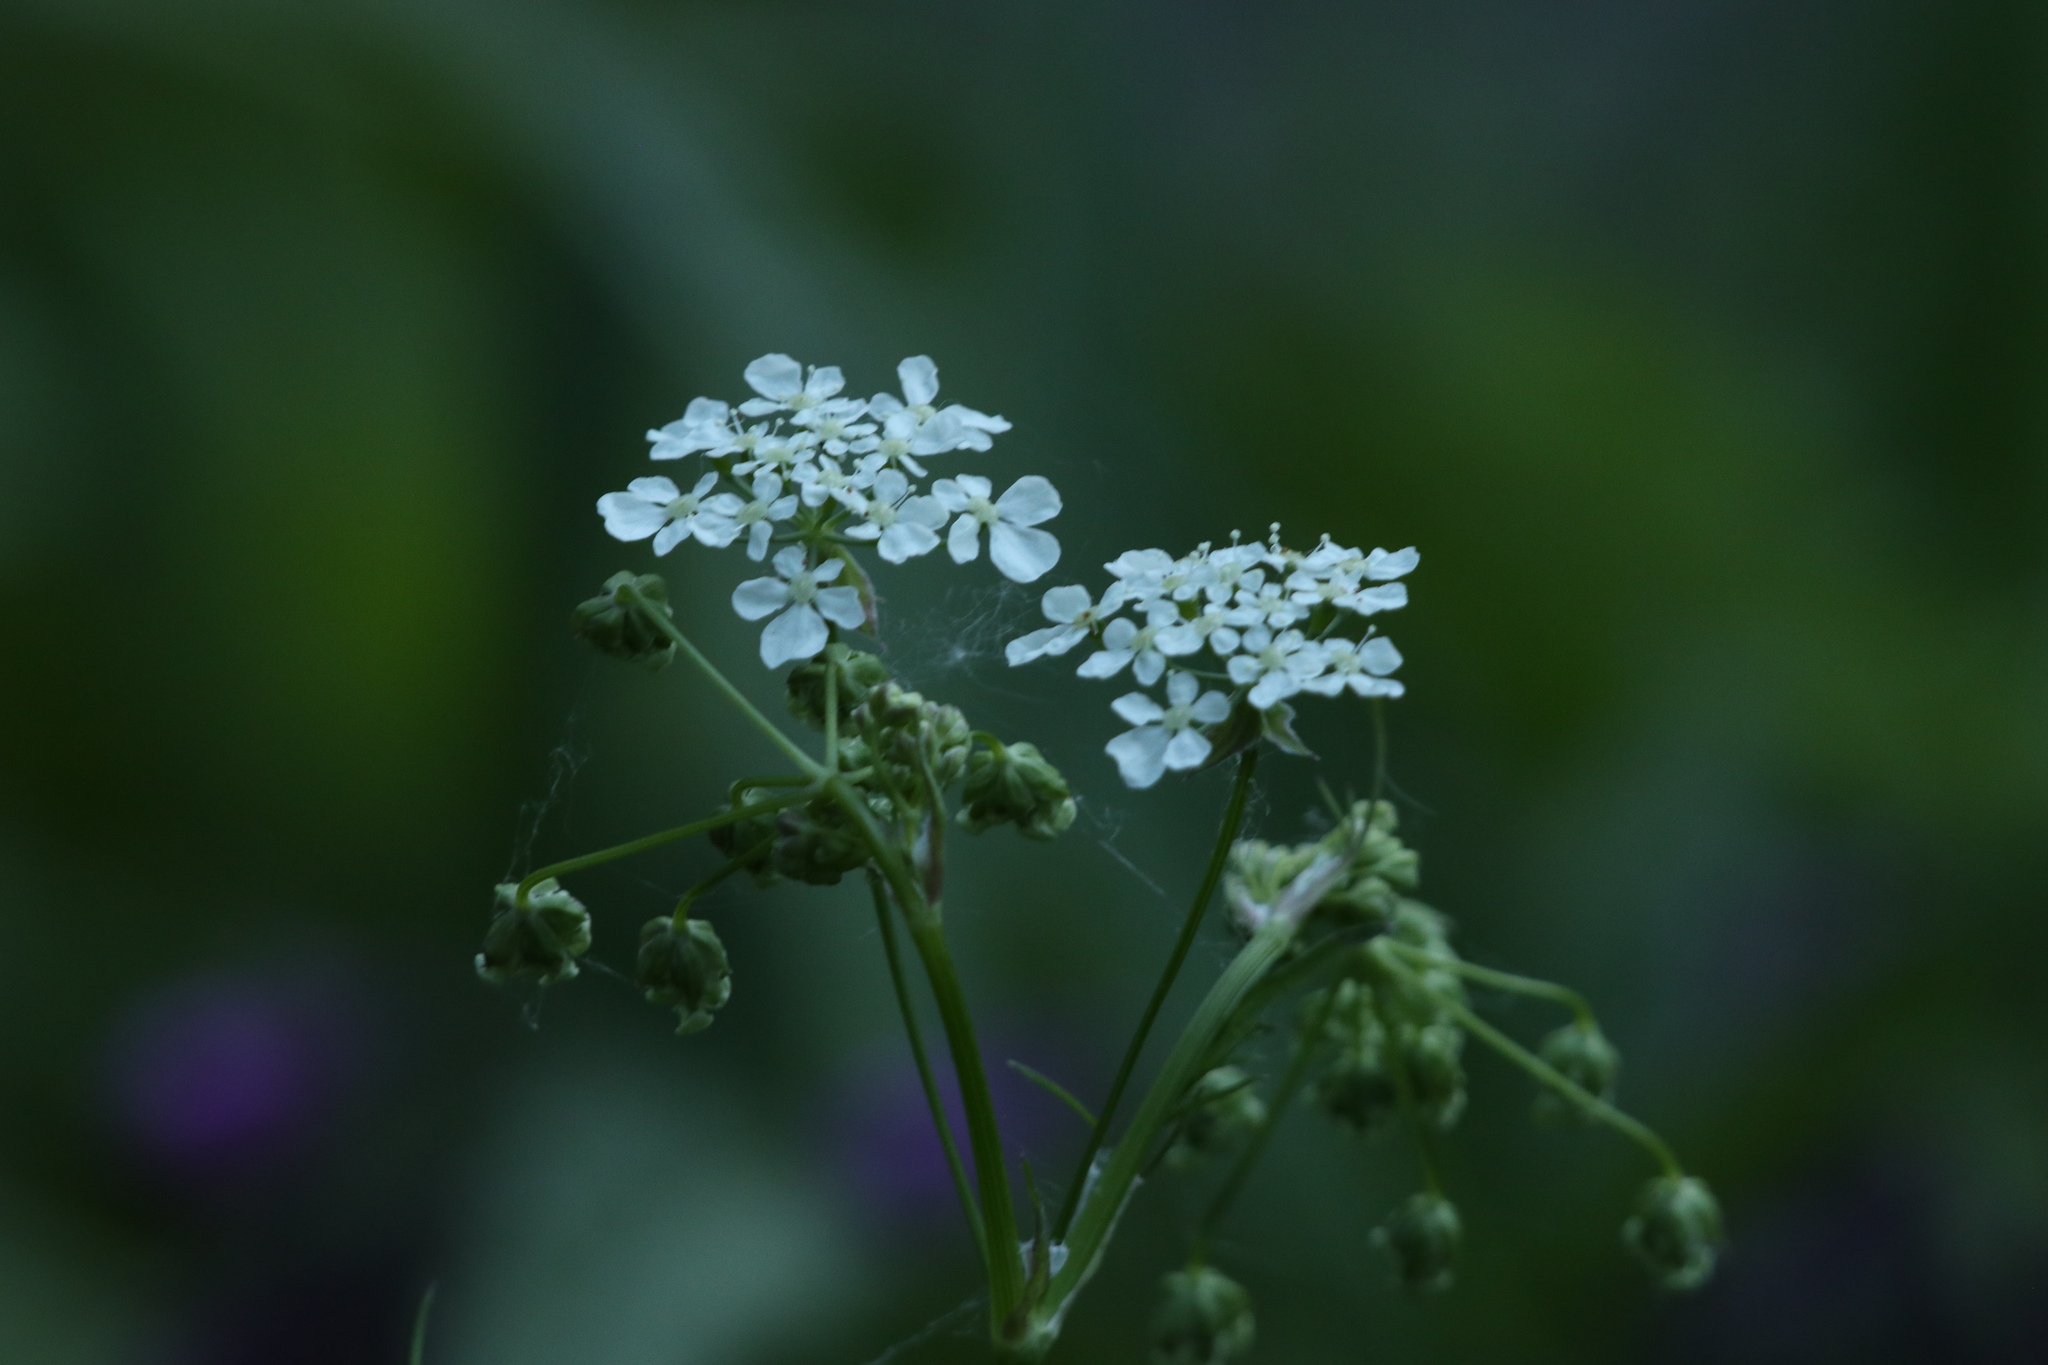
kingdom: Plantae
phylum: Tracheophyta
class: Magnoliopsida
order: Apiales
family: Apiaceae
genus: Anthriscus
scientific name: Anthriscus sylvestris
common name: Cow parsley
